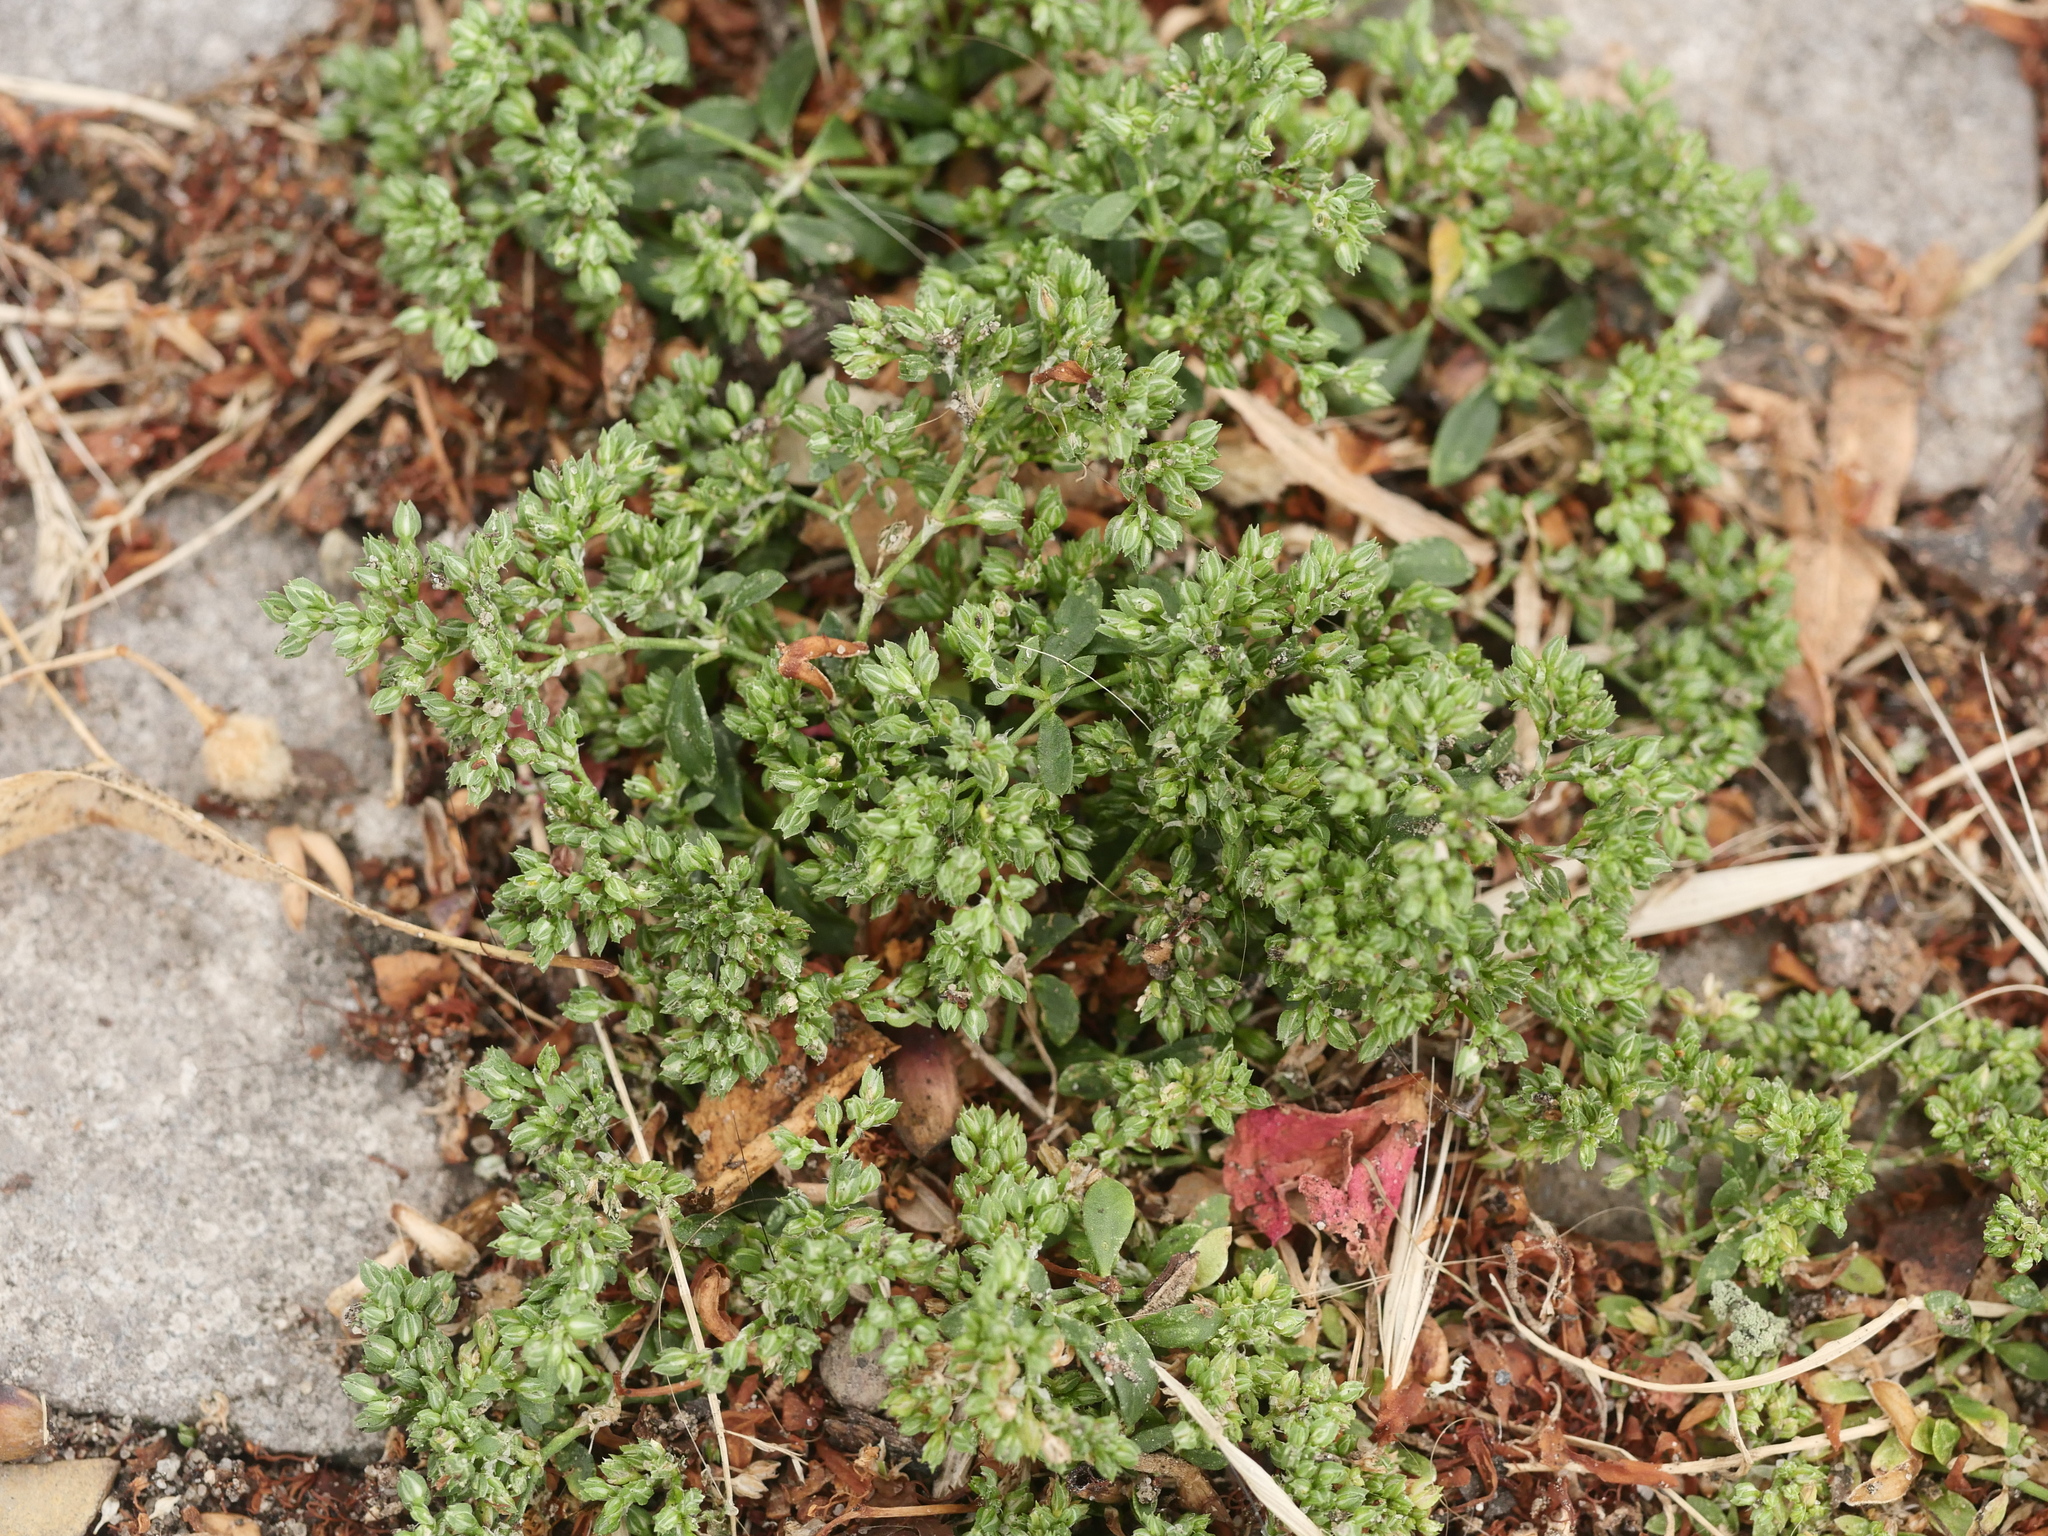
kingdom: Plantae
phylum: Tracheophyta
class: Magnoliopsida
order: Caryophyllales
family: Caryophyllaceae
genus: Polycarpon
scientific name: Polycarpon tetraphyllum
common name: Four-leaved all-seed
